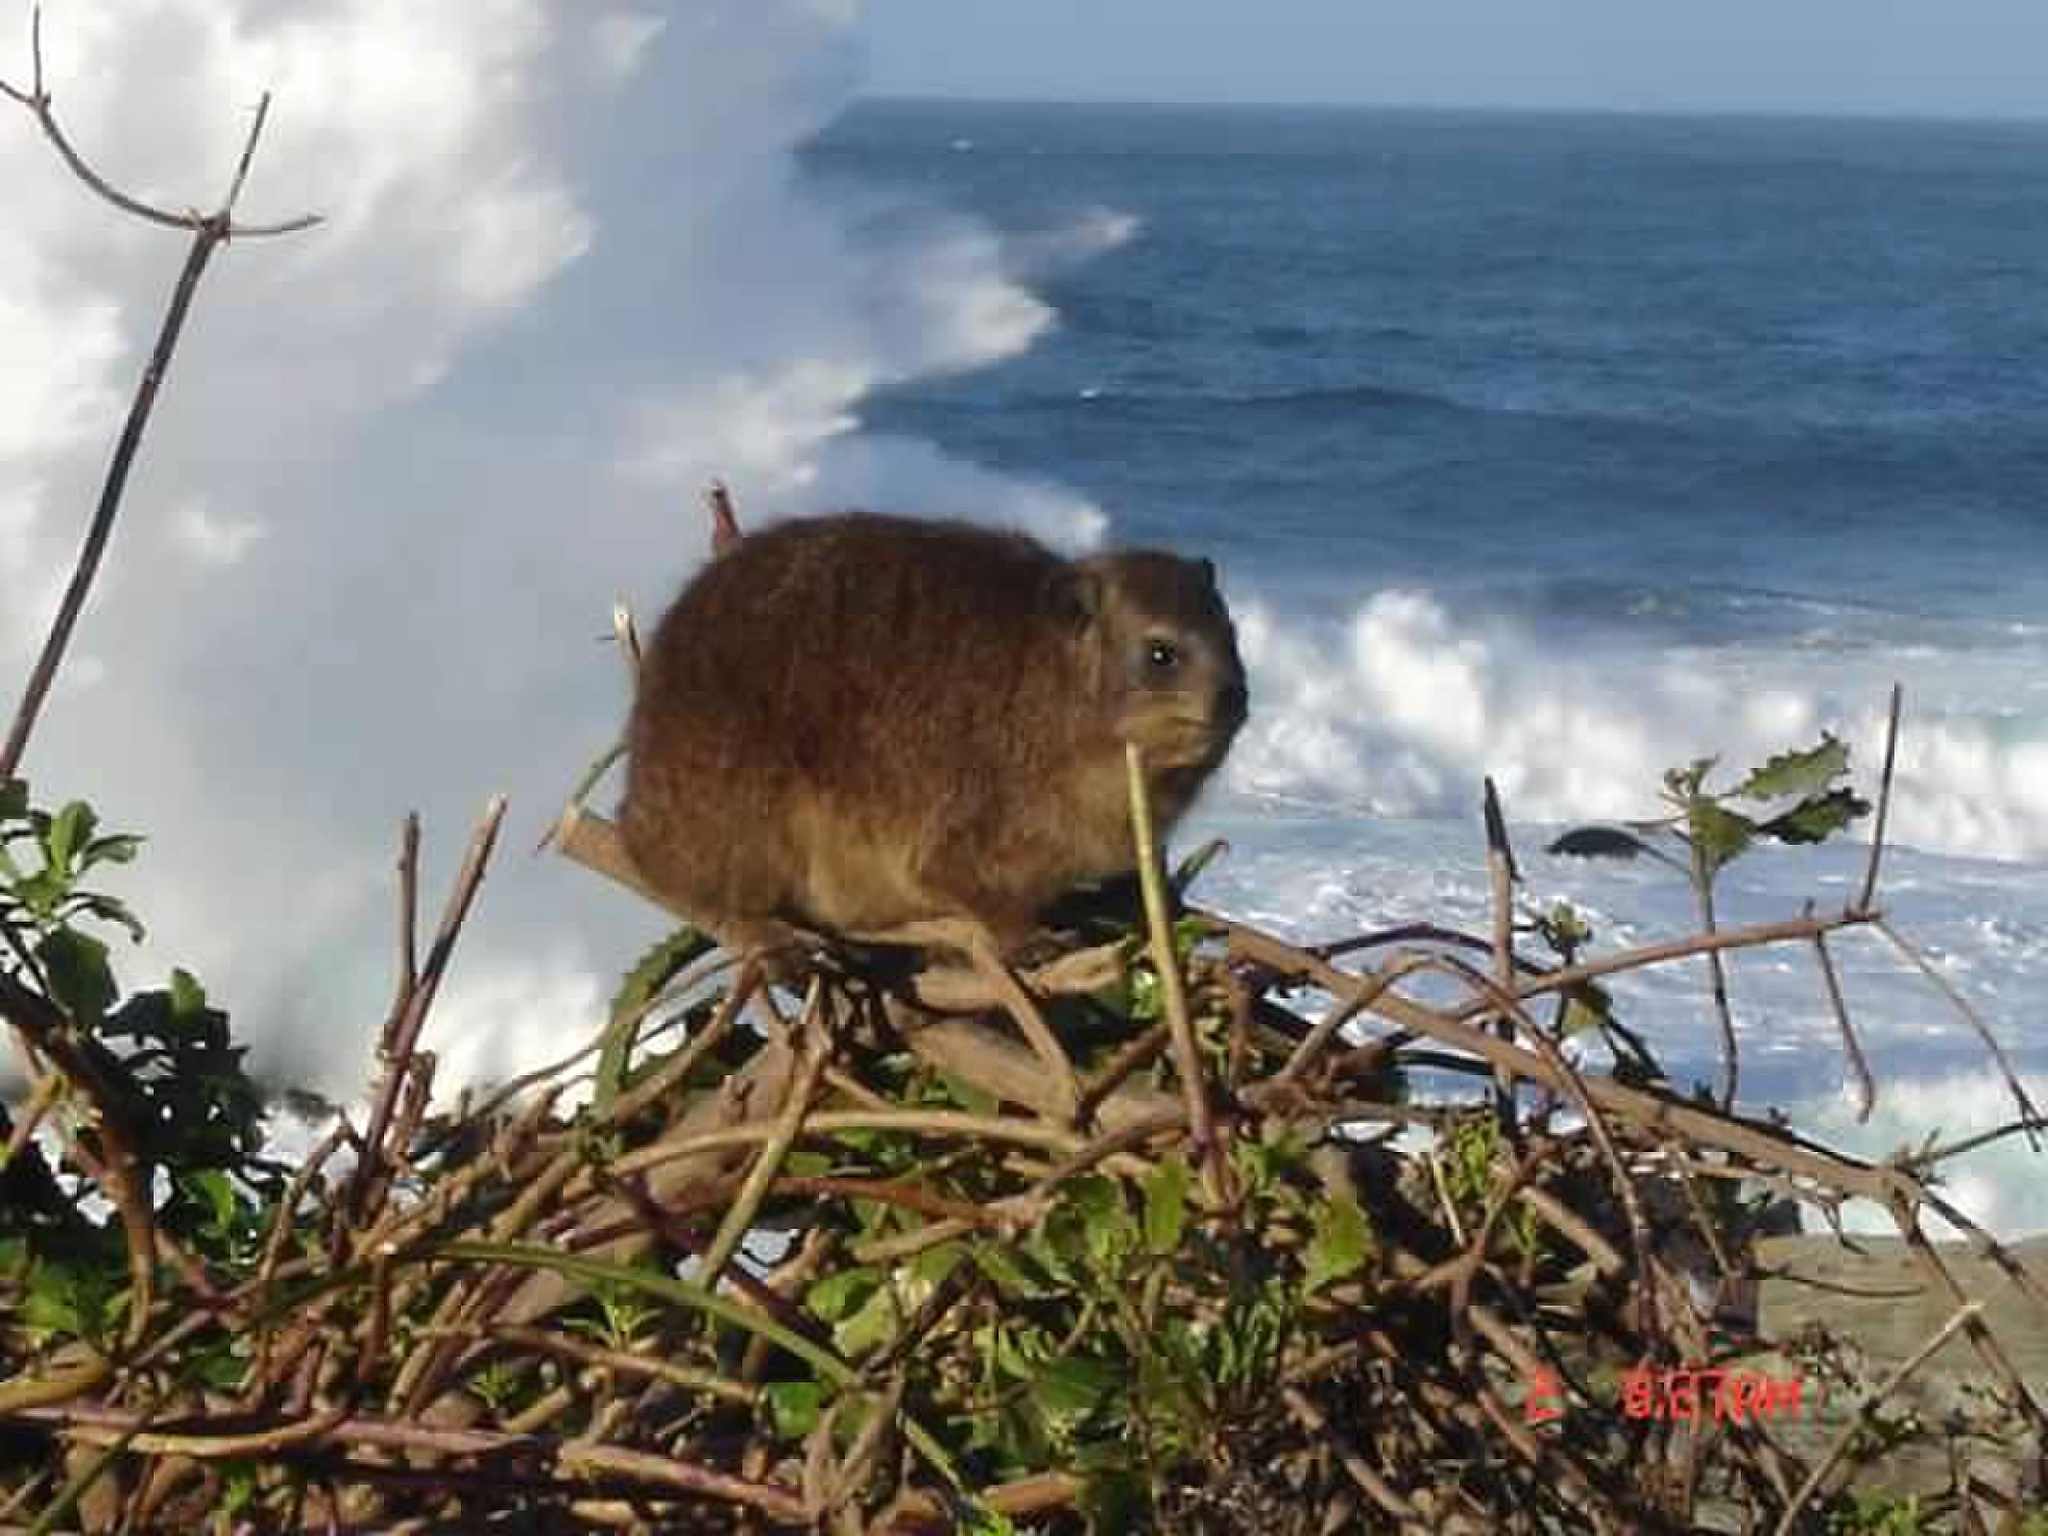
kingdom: Animalia
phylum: Chordata
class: Mammalia
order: Hyracoidea
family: Procaviidae
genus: Procavia
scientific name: Procavia capensis
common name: Rock hyrax
